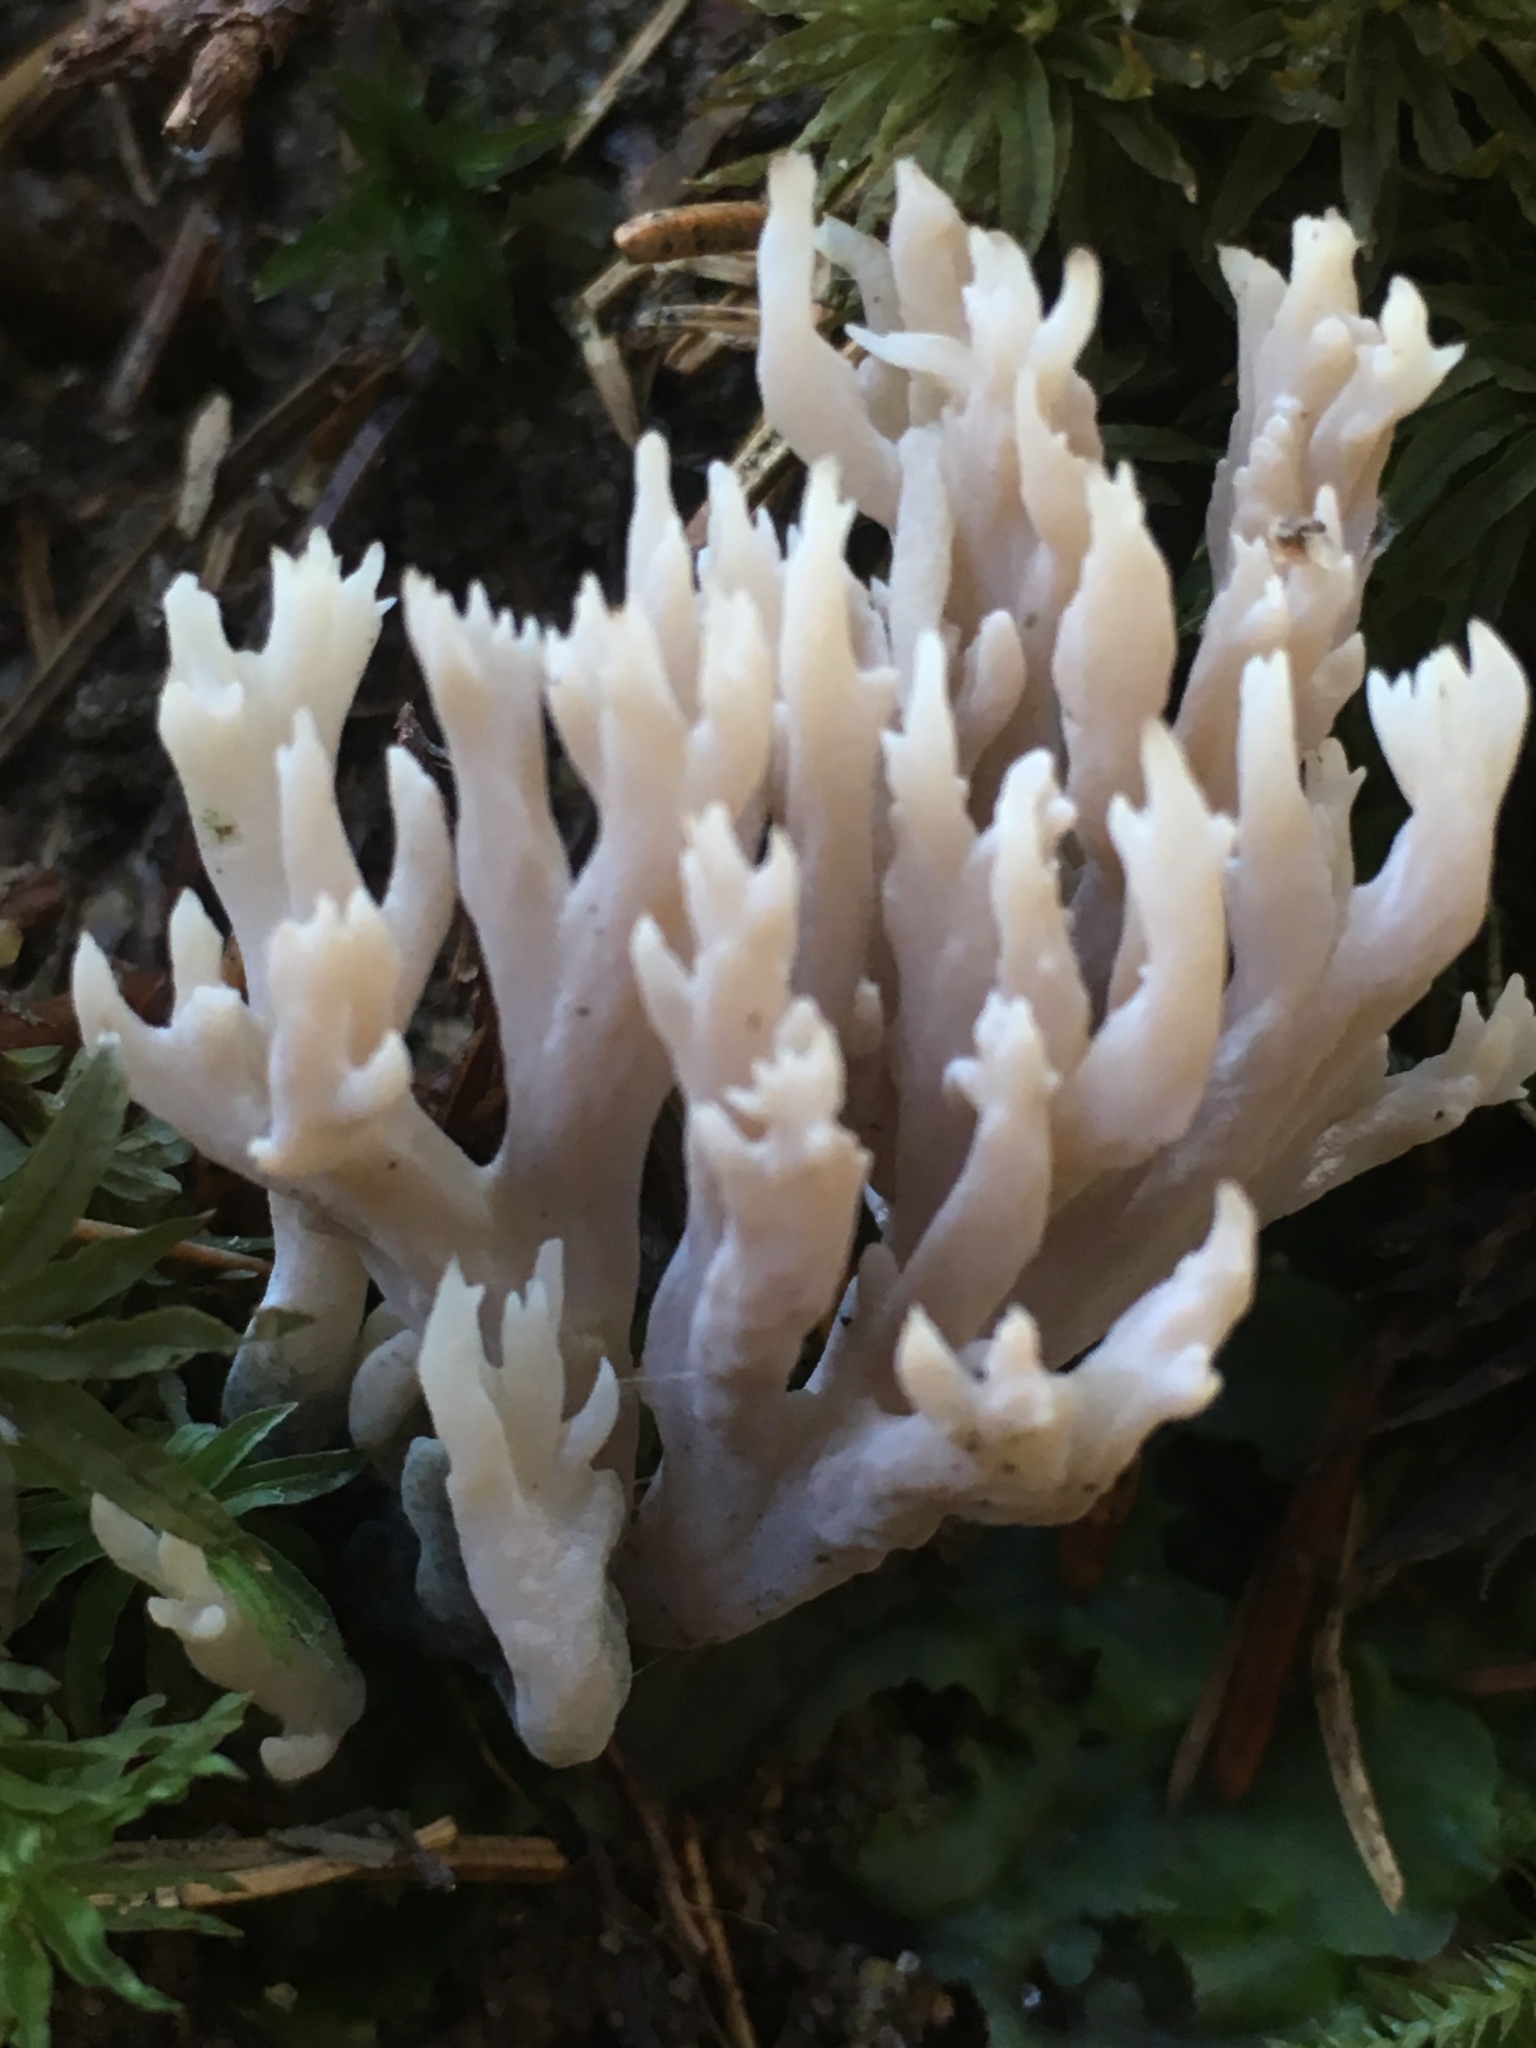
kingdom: Fungi
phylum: Basidiomycota
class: Agaricomycetes
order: Cantharellales
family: Hydnaceae
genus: Clavulina
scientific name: Clavulina coralloides
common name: Crested coral
